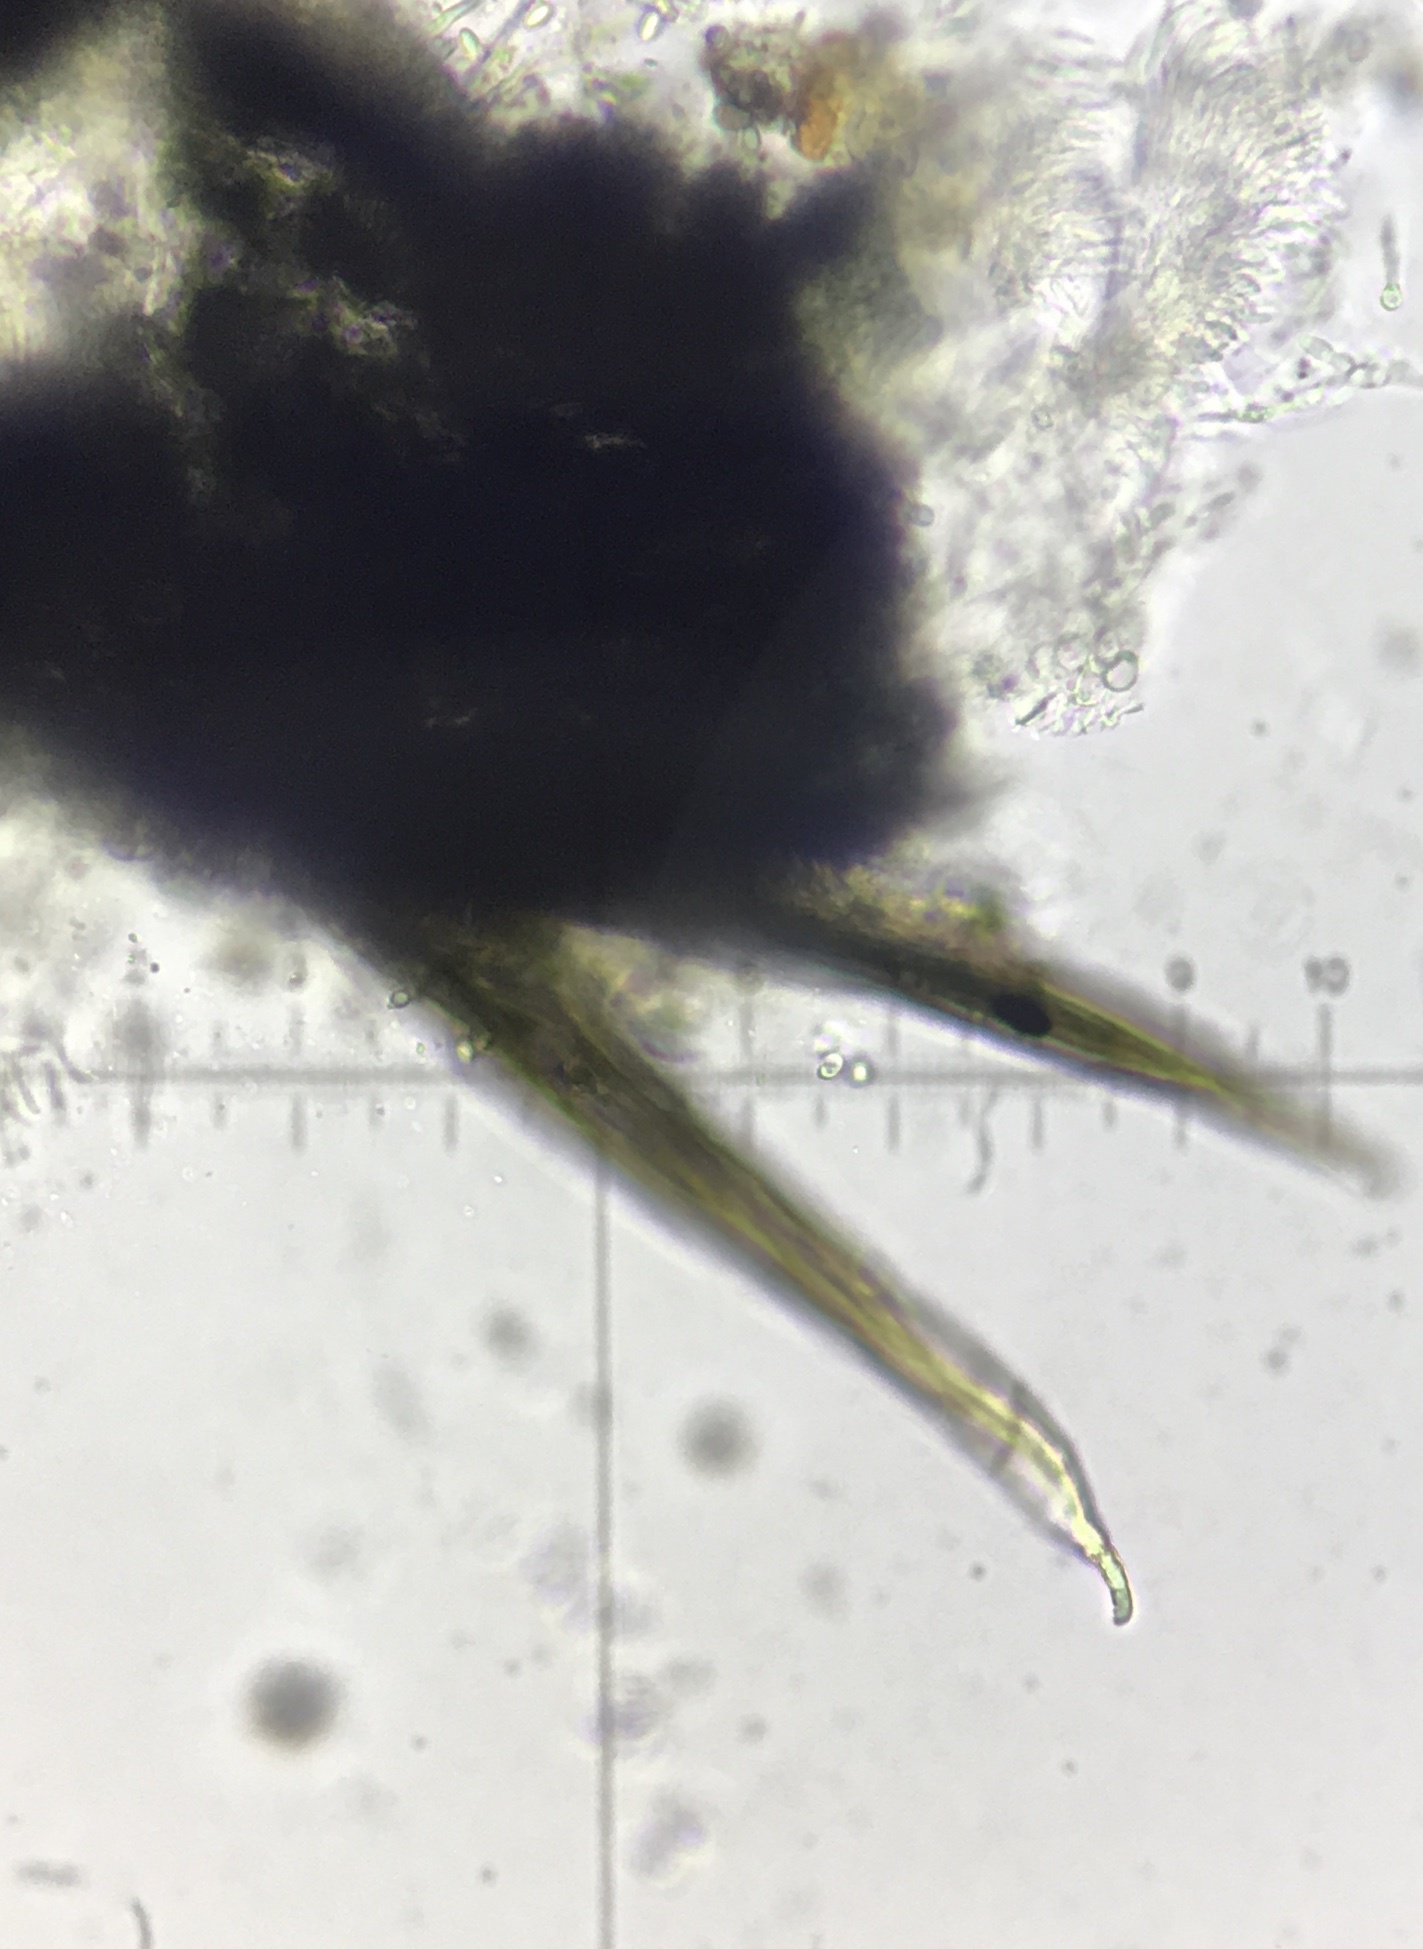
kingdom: Fungi
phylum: Ascomycota
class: Sordariomycetes
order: Sordariales
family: Podosporaceae
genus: Triangularia
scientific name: Triangularia anserina
